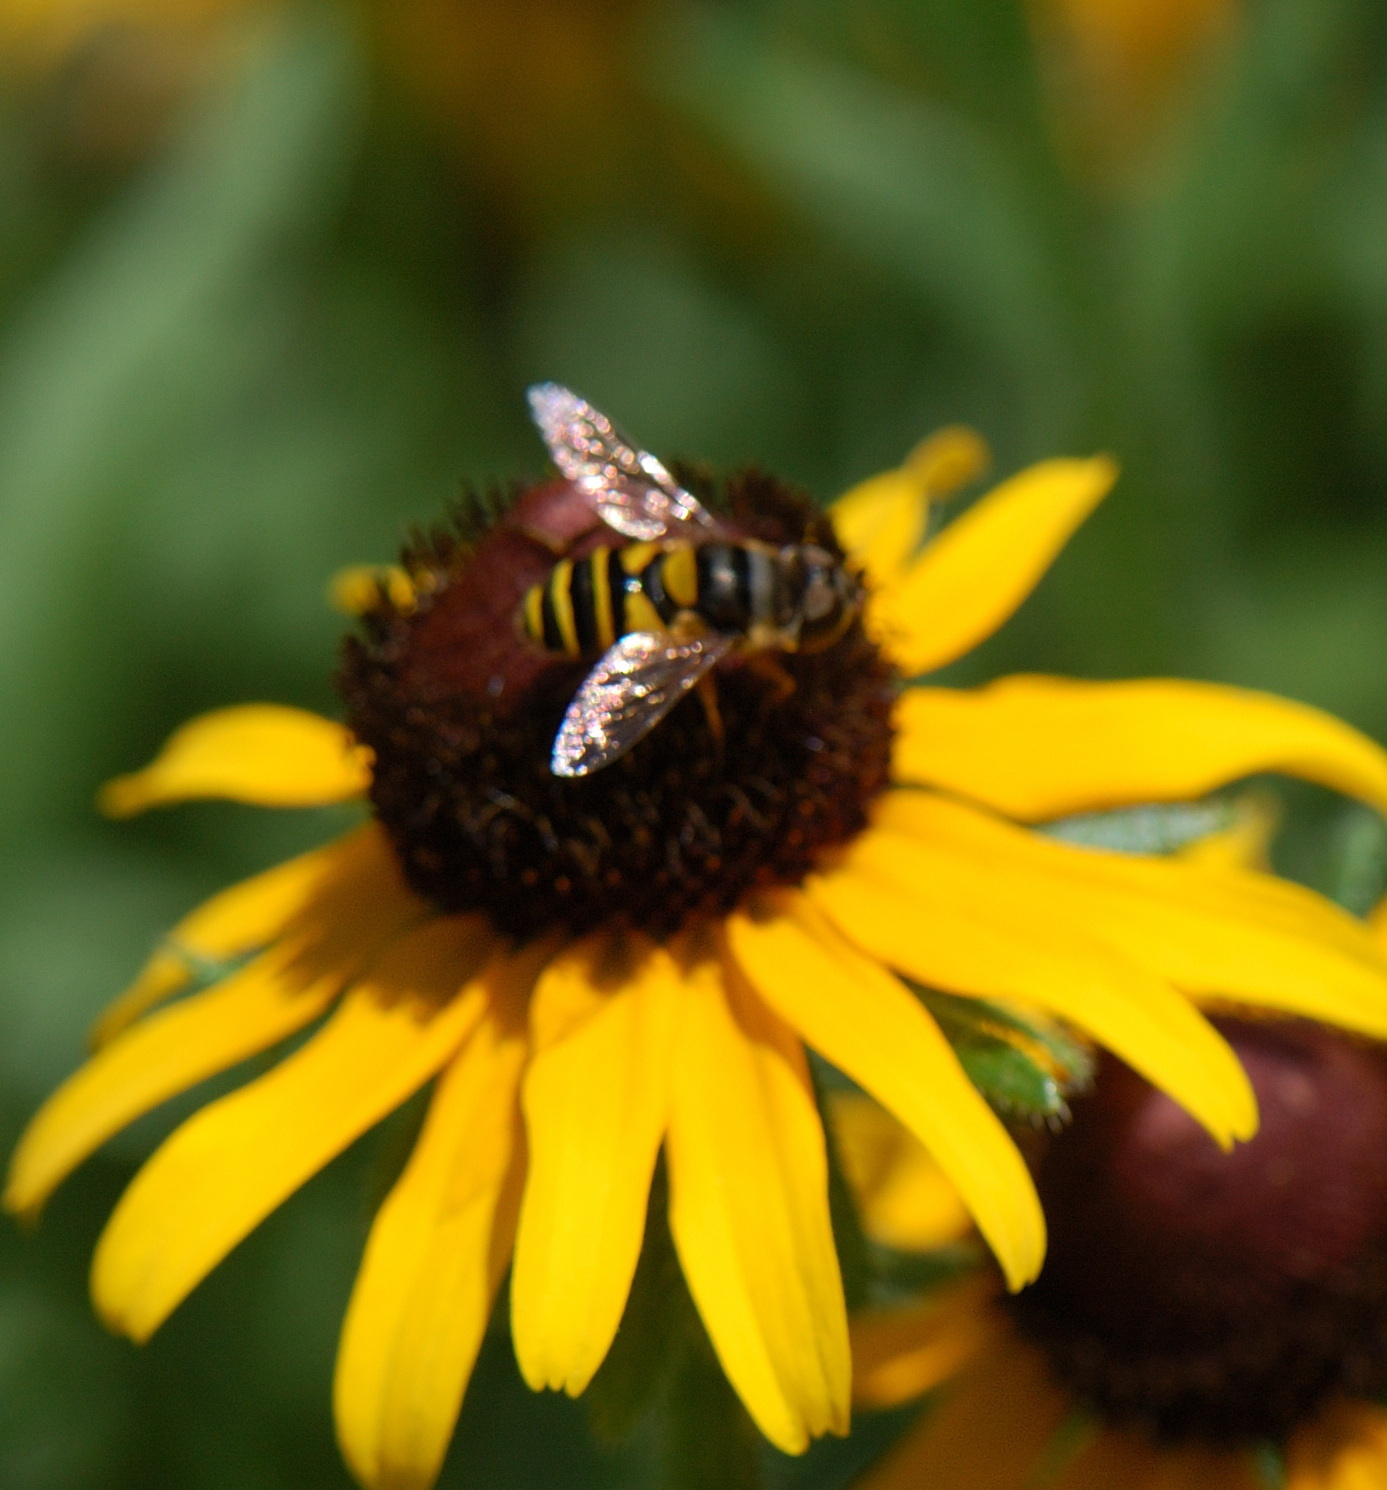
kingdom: Animalia
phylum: Arthropoda
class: Insecta
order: Diptera
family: Syrphidae
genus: Eristalis
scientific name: Eristalis transversa
